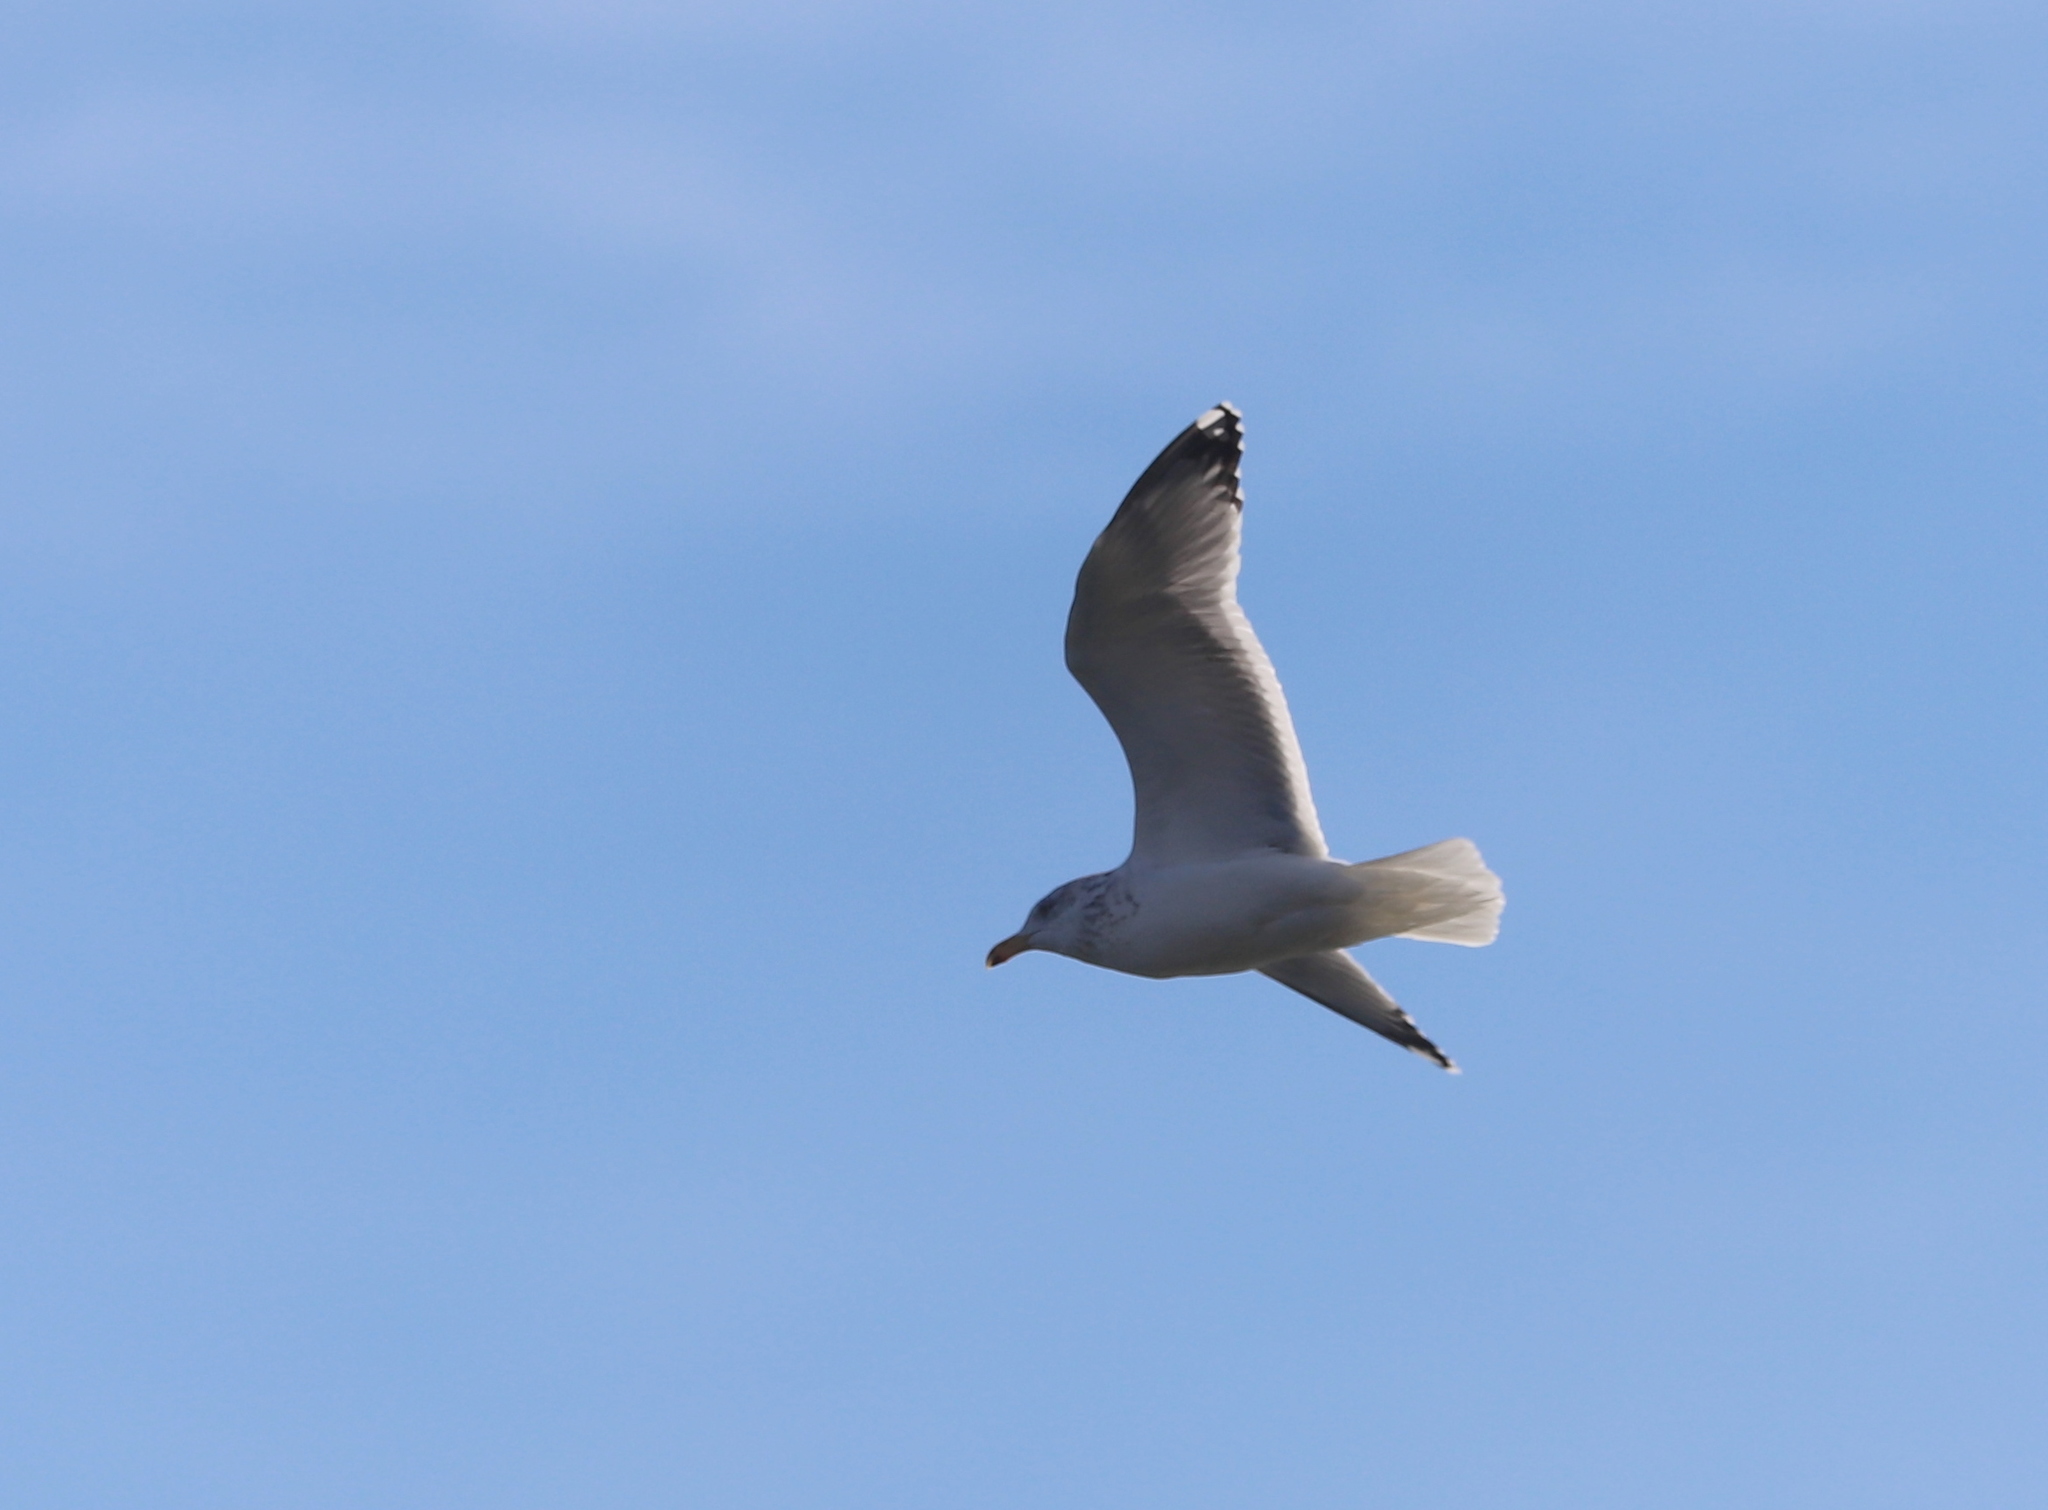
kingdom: Animalia
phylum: Chordata
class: Aves
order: Charadriiformes
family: Laridae
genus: Larus
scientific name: Larus argentatus
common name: Herring gull
